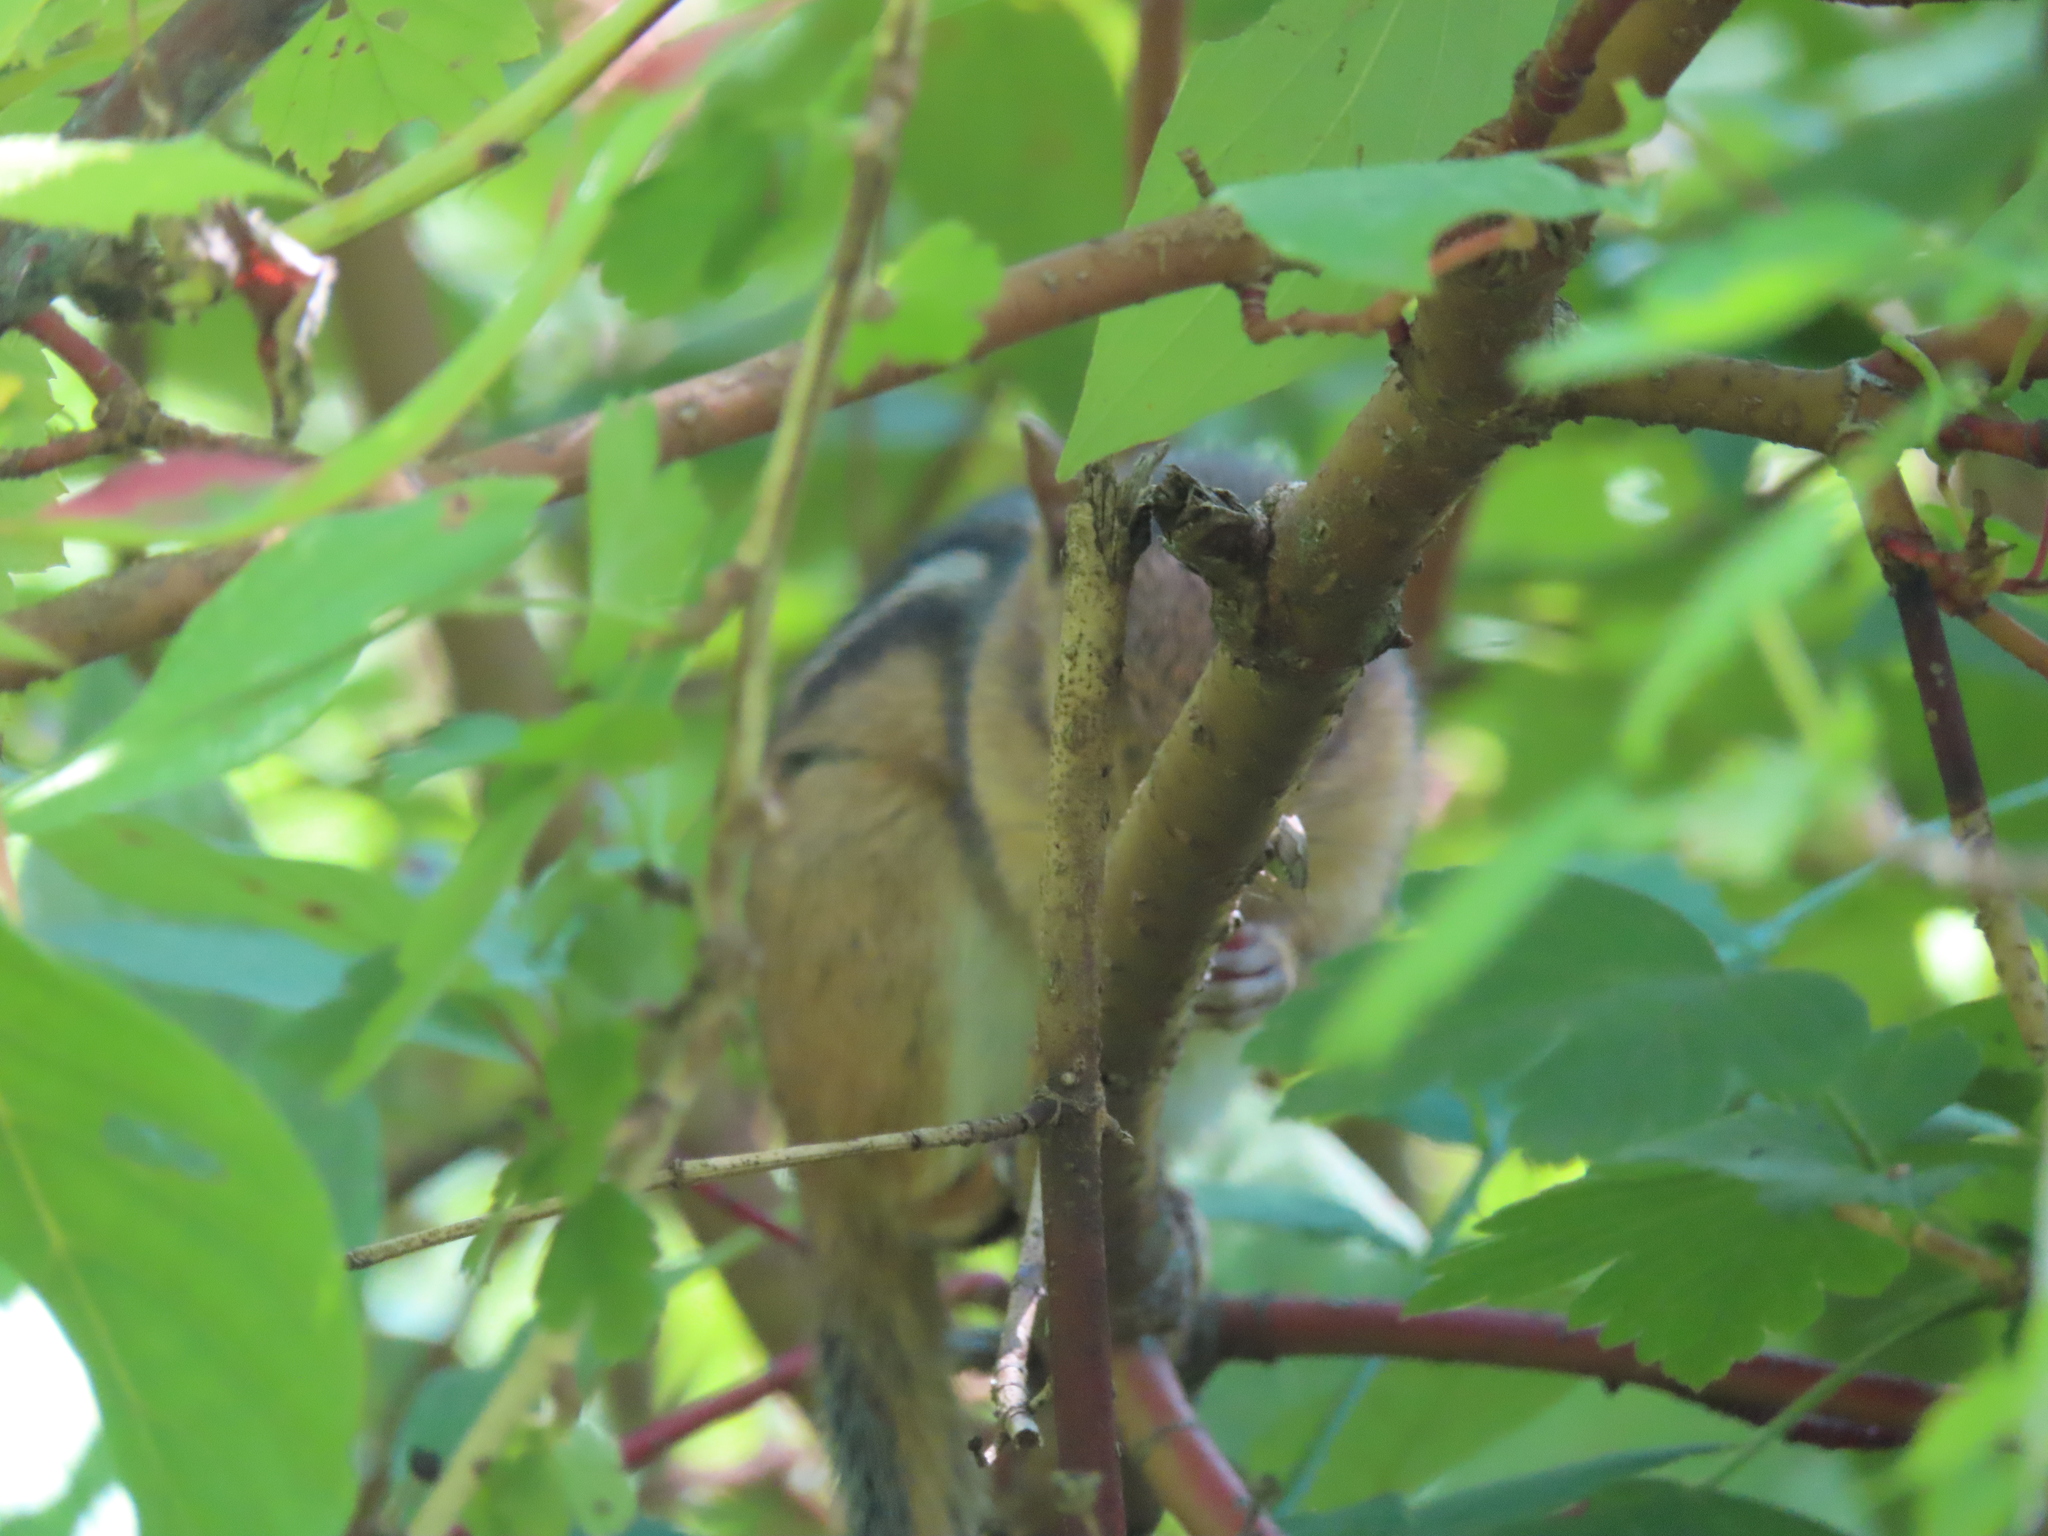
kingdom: Animalia
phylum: Chordata
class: Mammalia
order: Rodentia
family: Sciuridae
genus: Tamias
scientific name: Tamias striatus
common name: Eastern chipmunk
